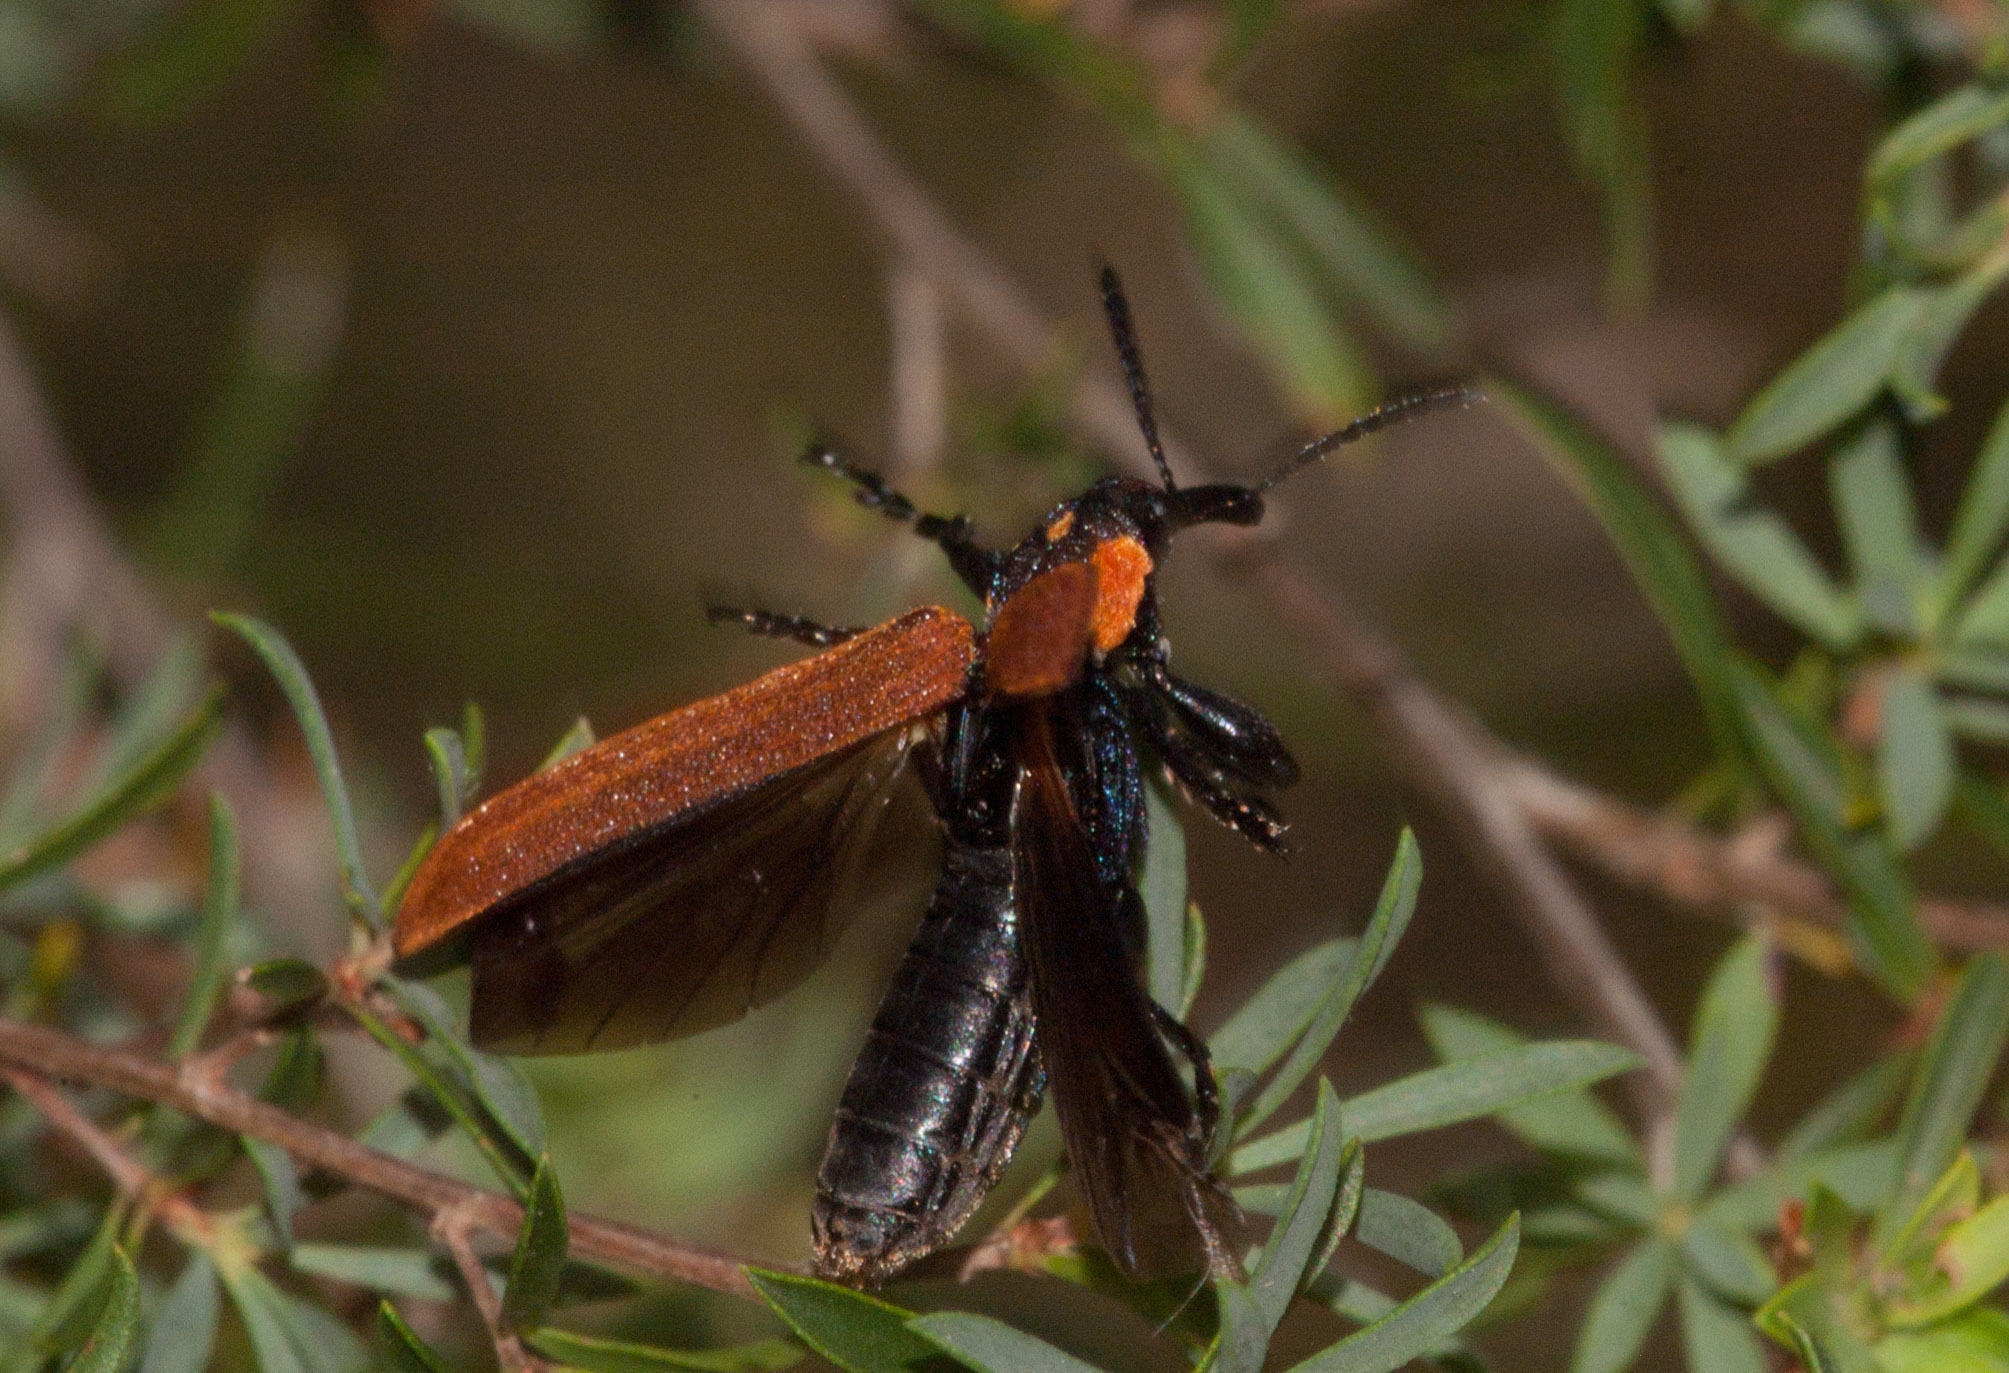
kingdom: Animalia
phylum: Arthropoda
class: Insecta
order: Coleoptera
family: Belidae
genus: Rhinotia
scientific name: Rhinotia haemoptera
